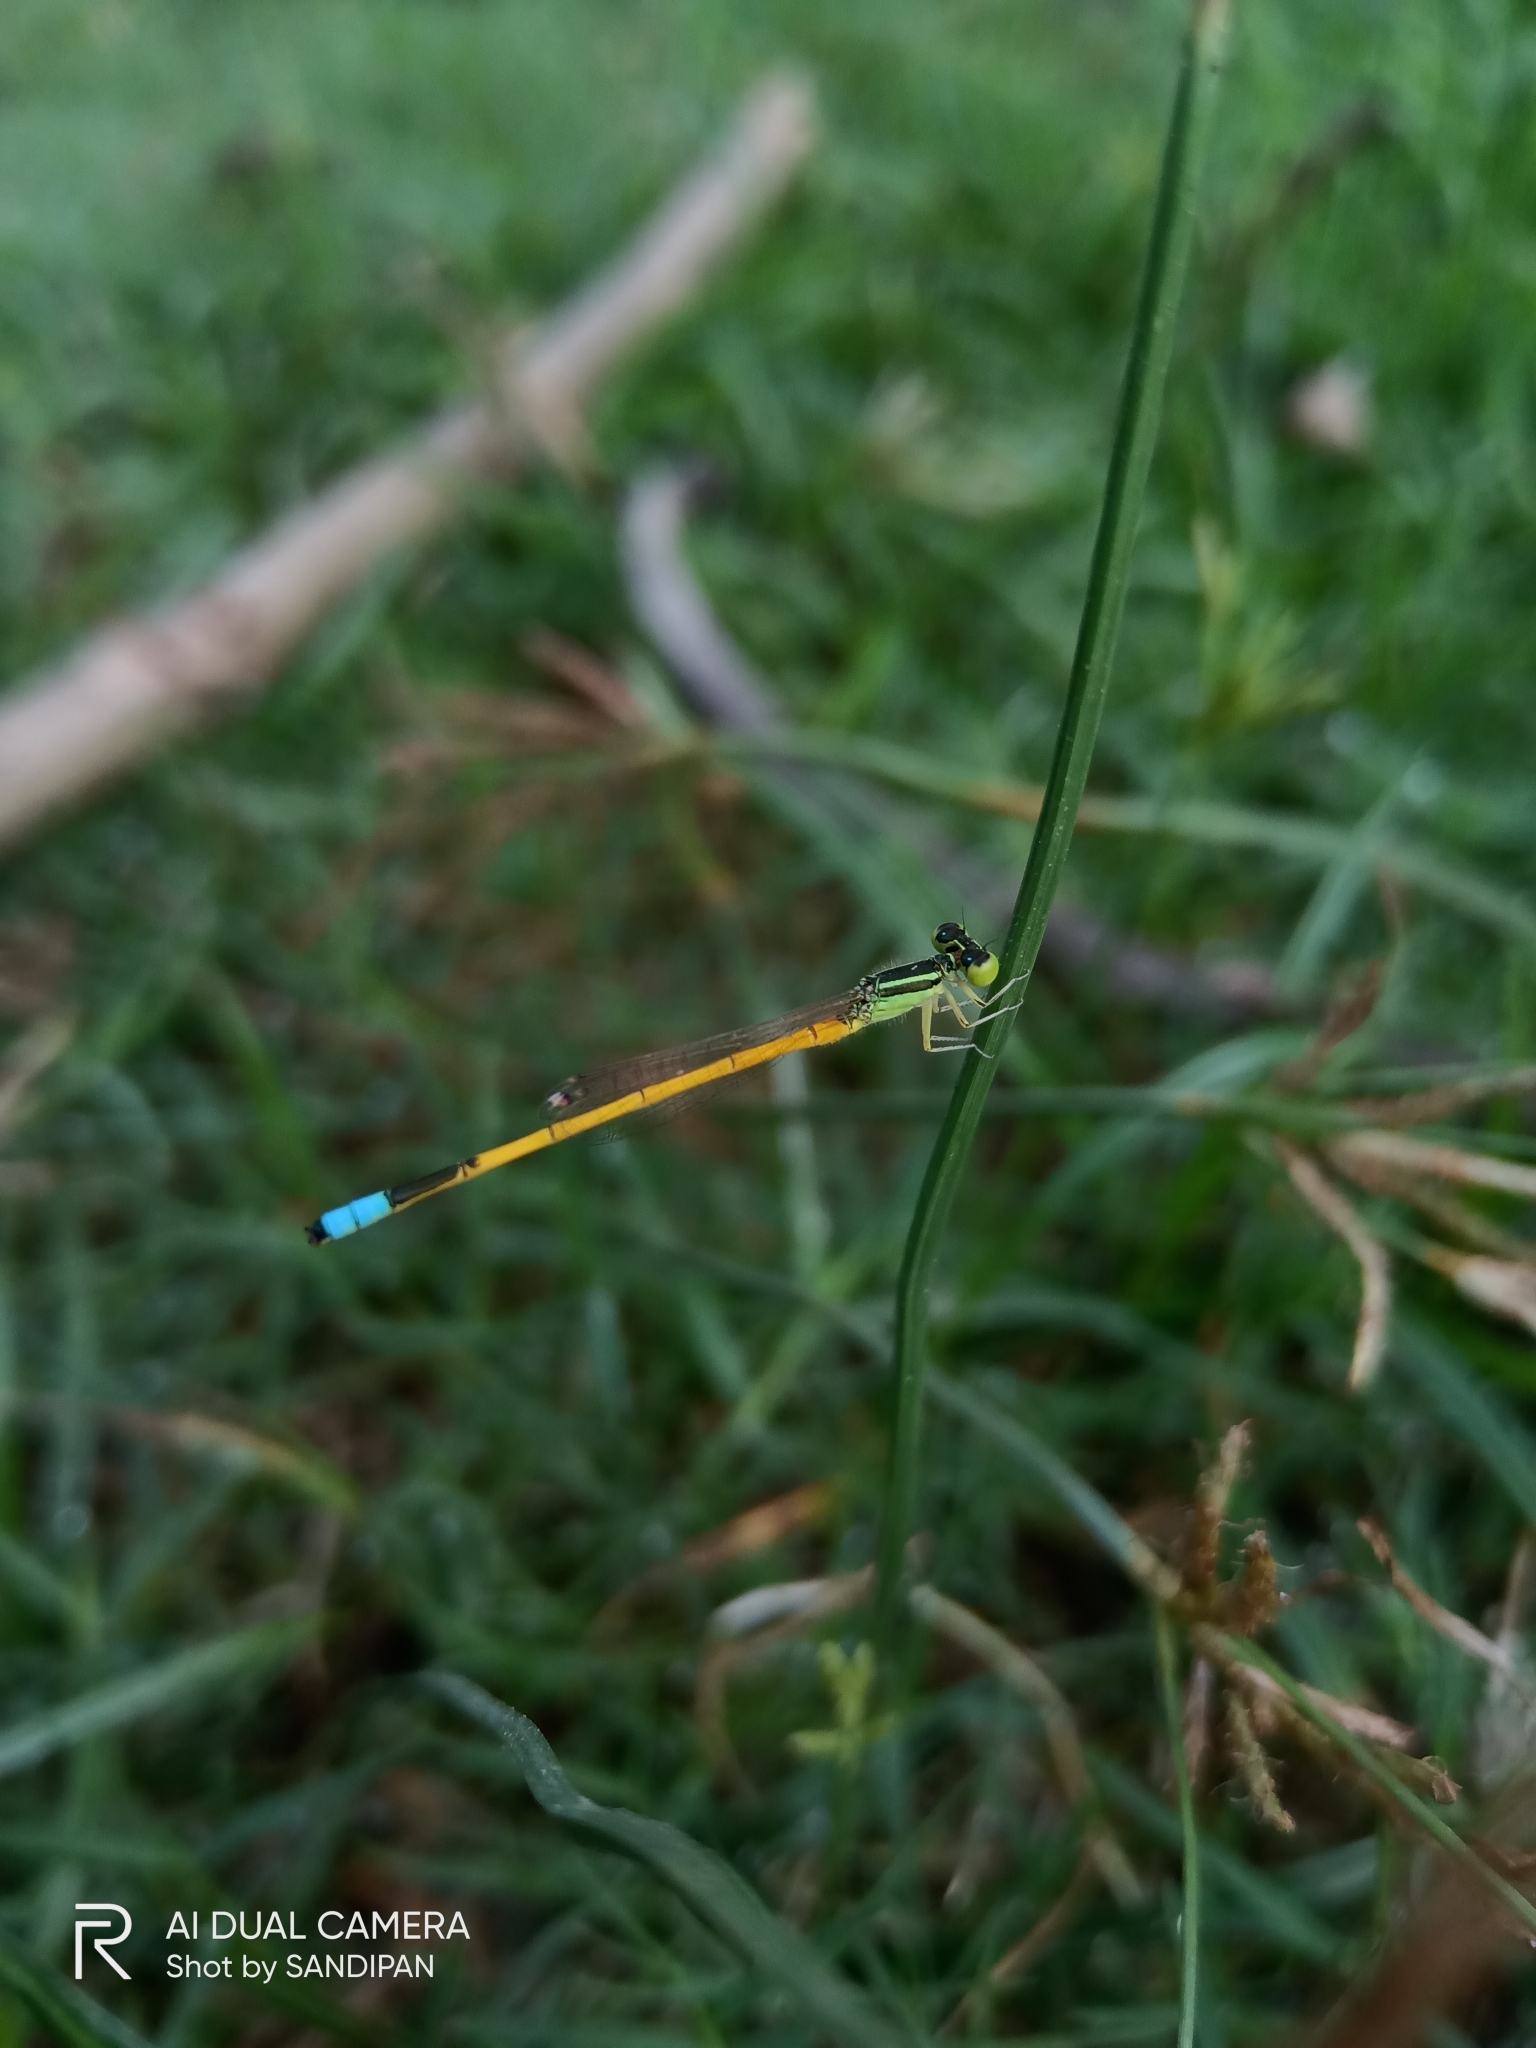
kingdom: Animalia
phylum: Arthropoda
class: Insecta
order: Odonata
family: Coenagrionidae
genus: Ischnura
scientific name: Ischnura rubilio
